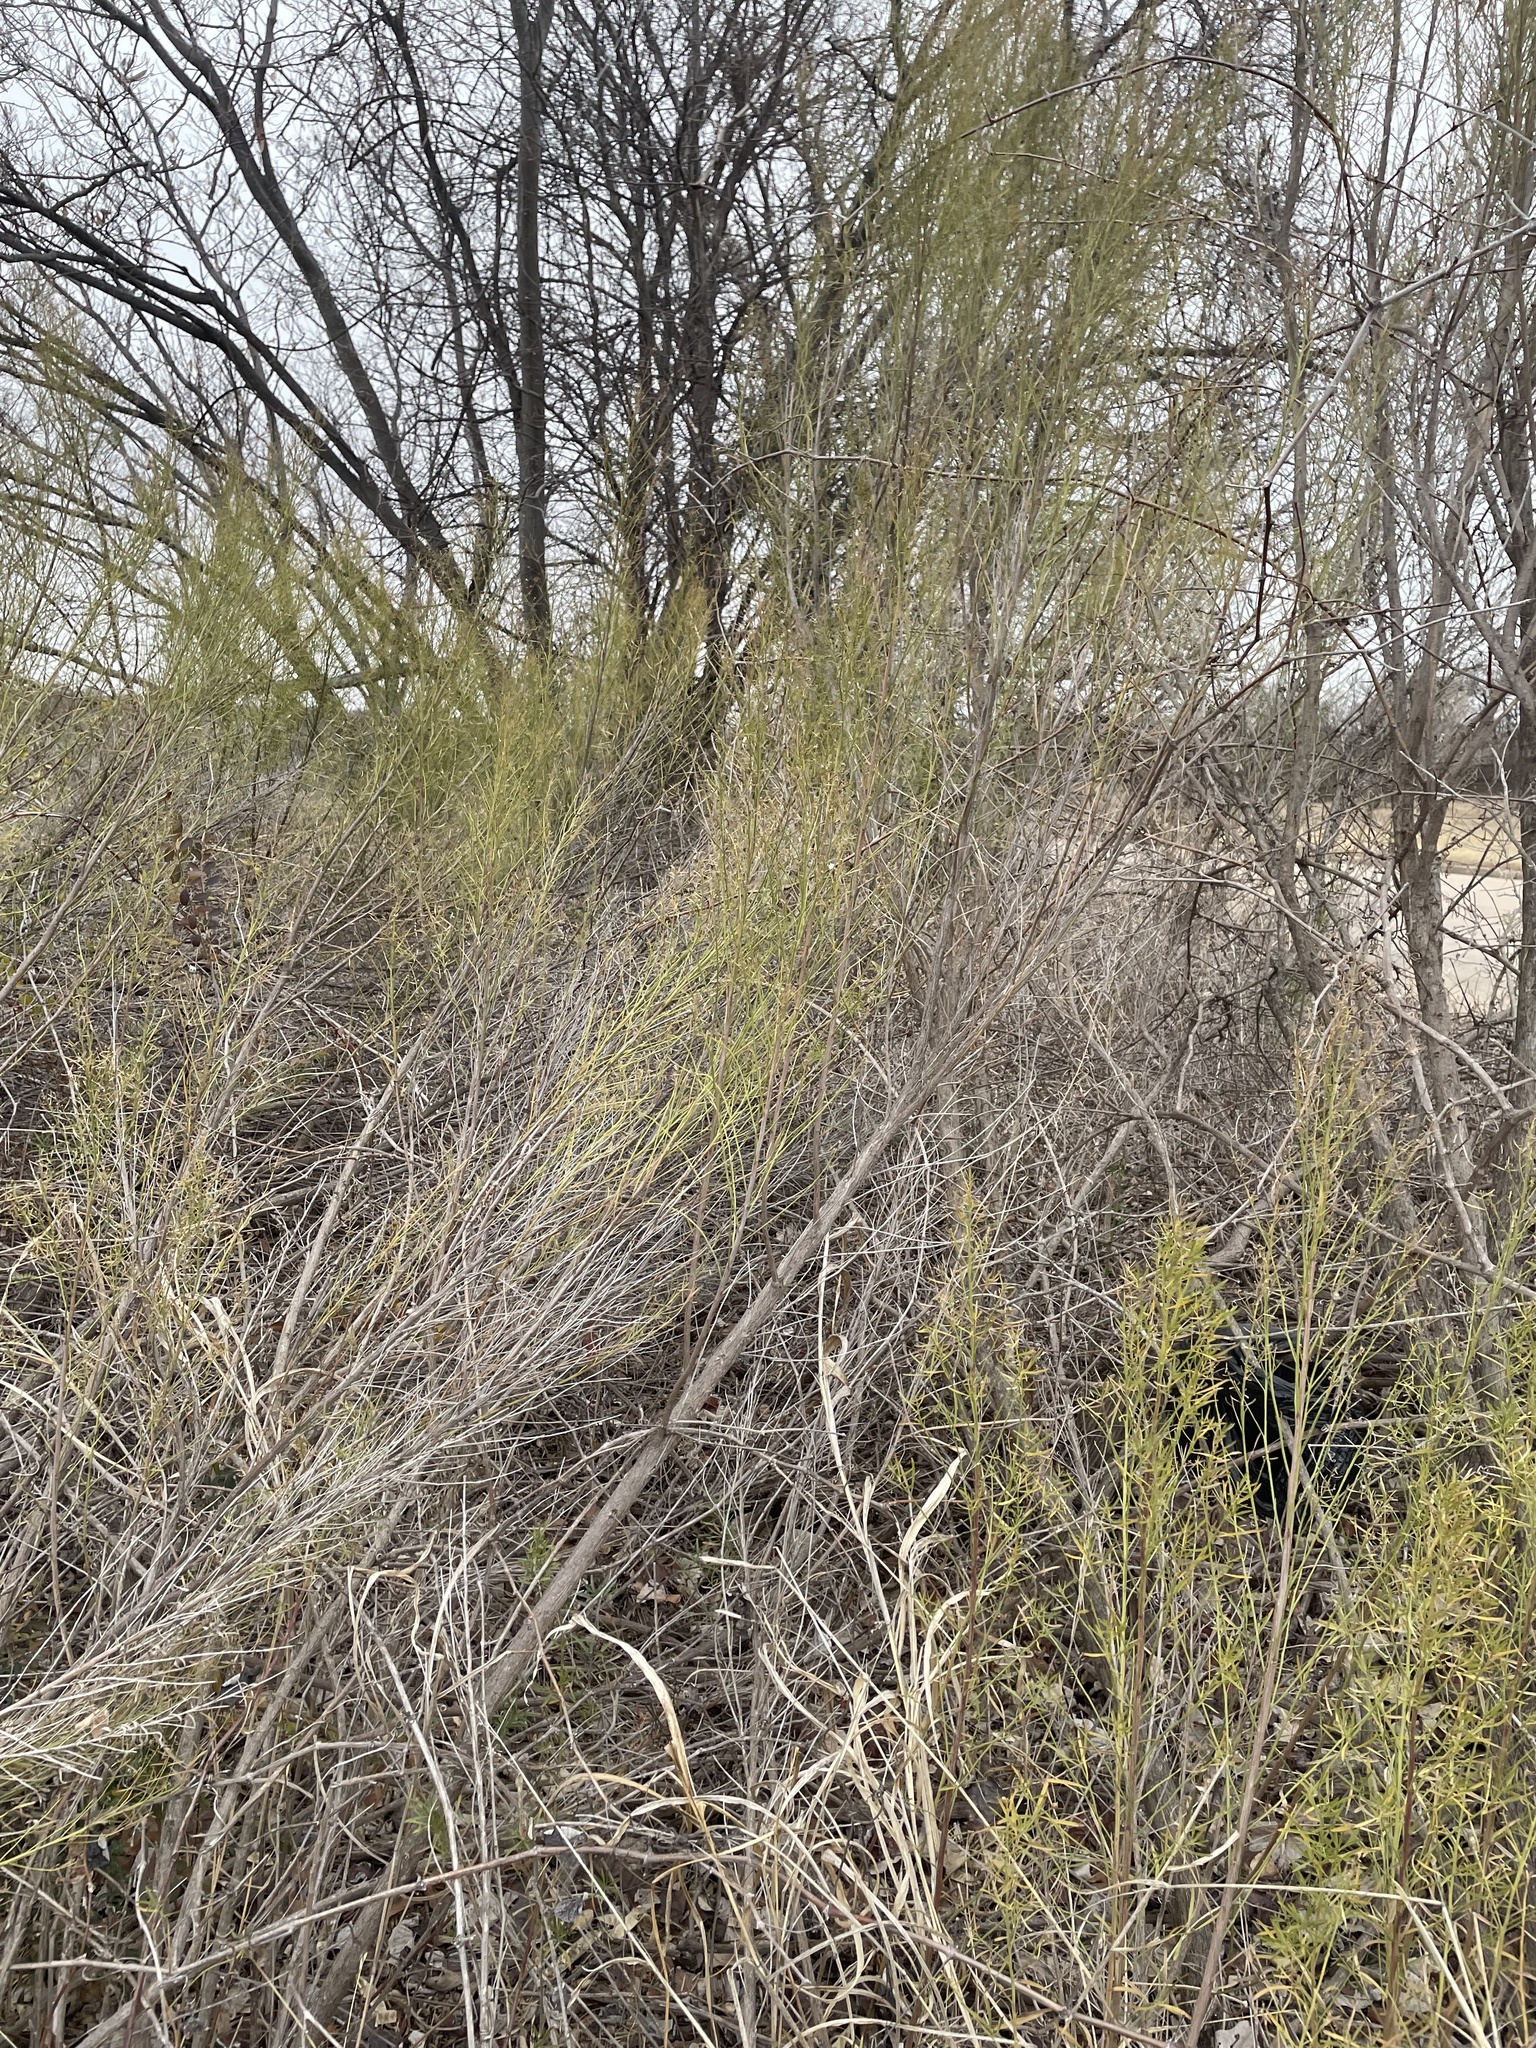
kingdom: Plantae
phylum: Tracheophyta
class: Magnoliopsida
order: Asterales
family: Asteraceae
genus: Baccharis
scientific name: Baccharis neglecta
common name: Roosevelt-weed
